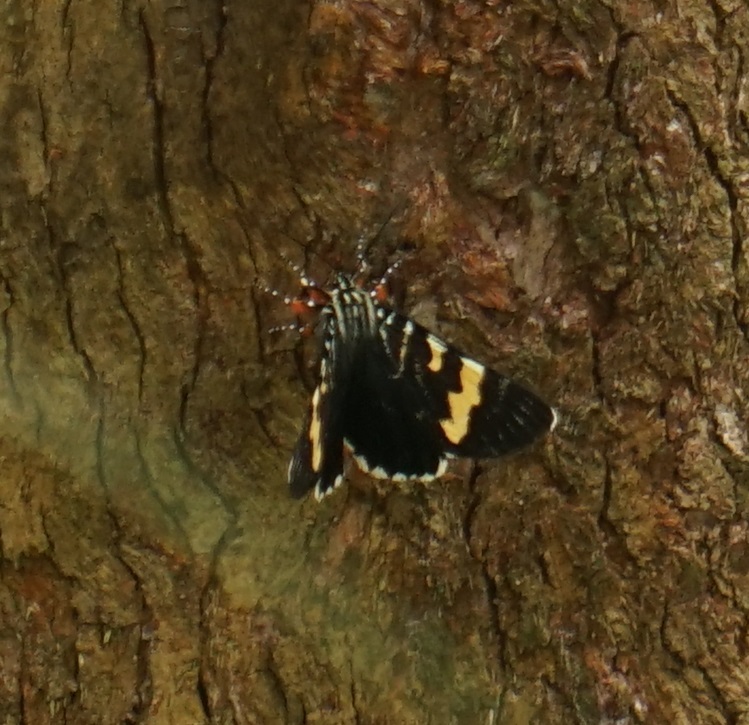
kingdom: Animalia
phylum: Arthropoda
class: Insecta
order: Lepidoptera
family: Noctuidae
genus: Phalaenoides
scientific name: Phalaenoides glycinae
